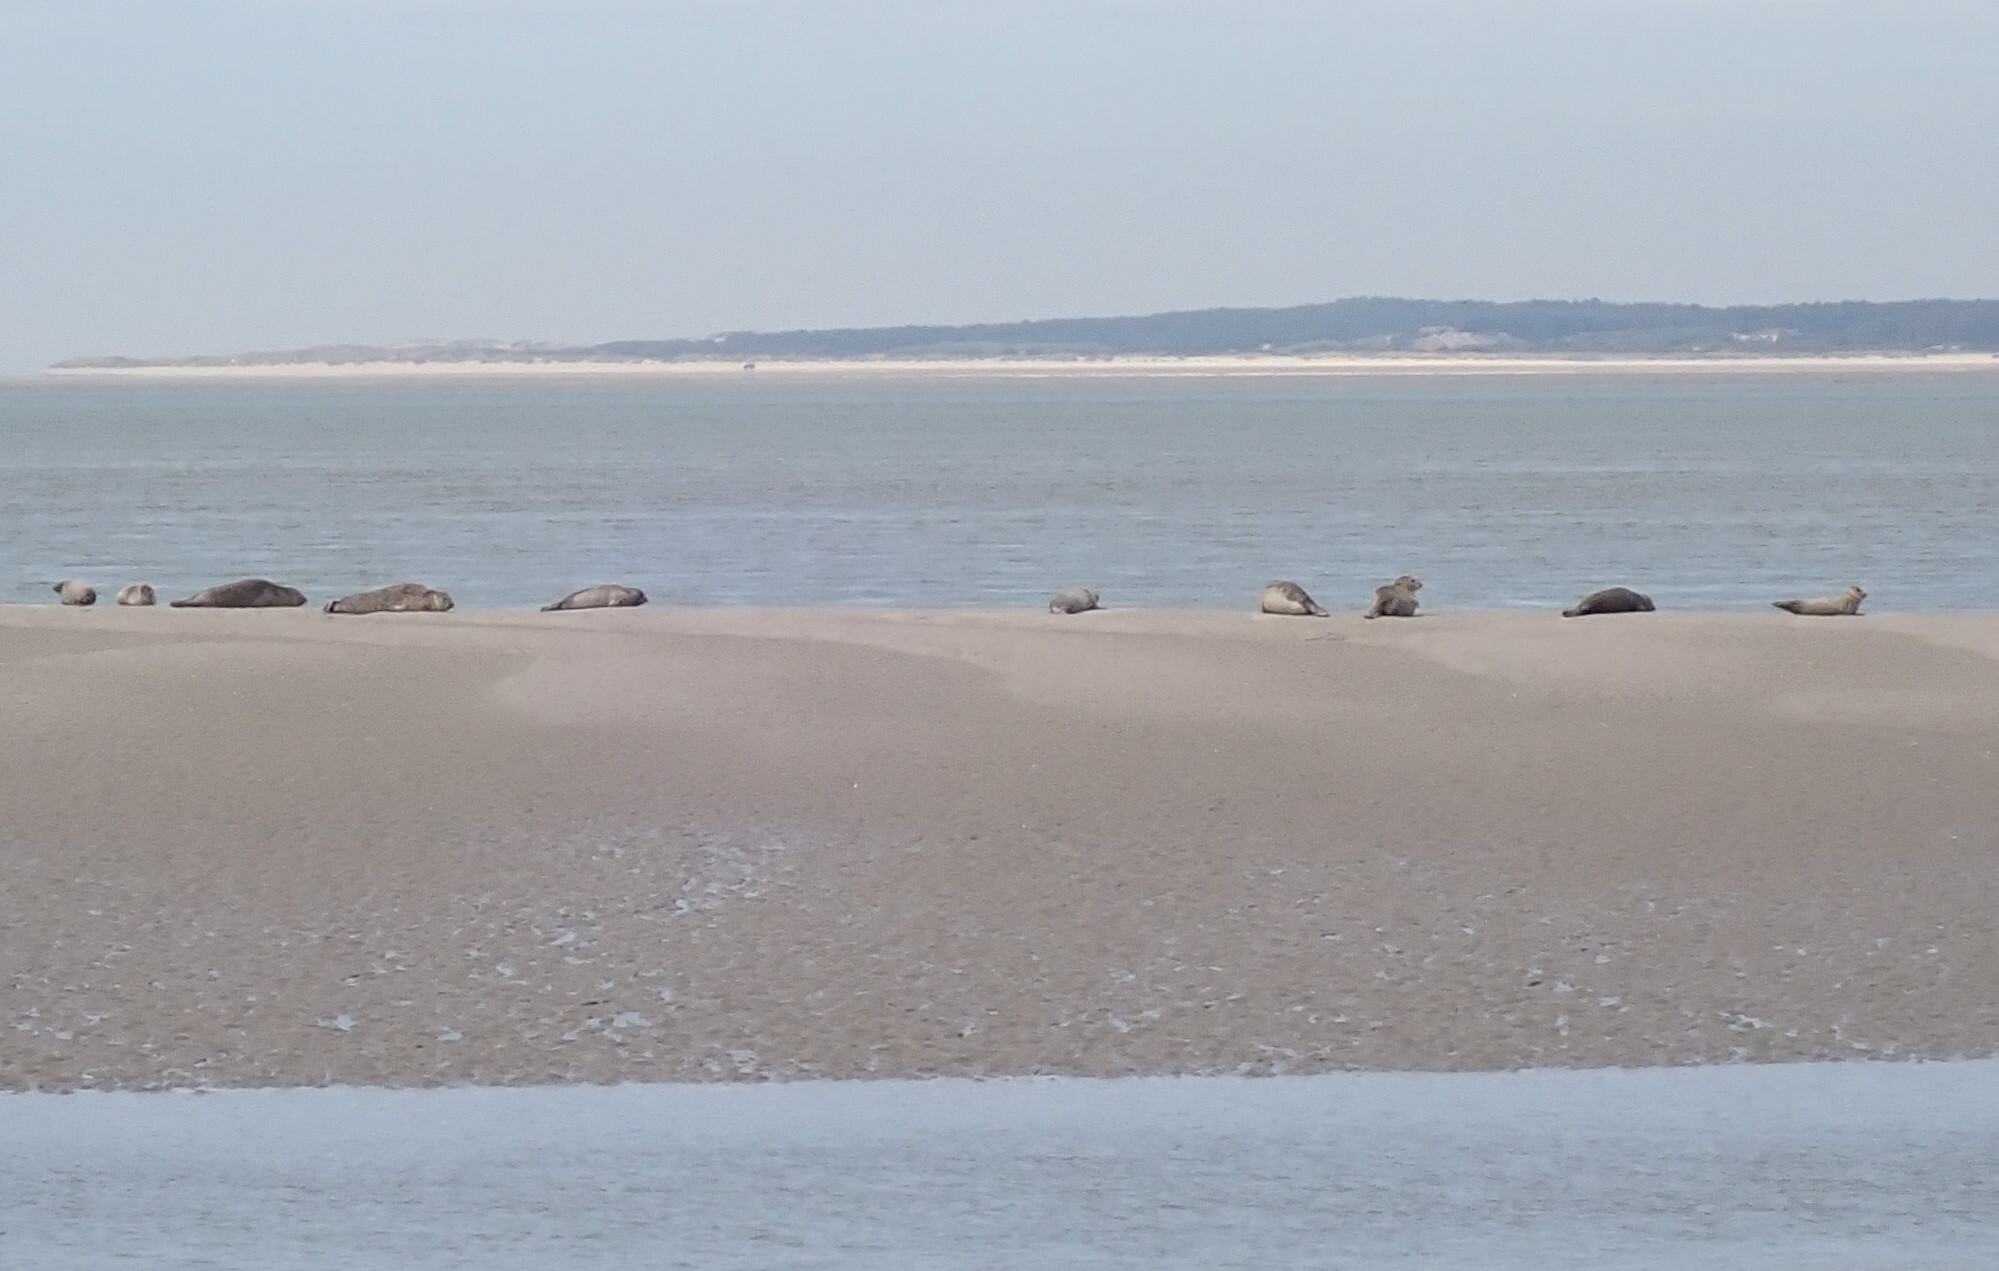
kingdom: Animalia
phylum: Chordata
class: Mammalia
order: Carnivora
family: Phocidae
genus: Phoca
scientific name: Phoca vitulina
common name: Harbor seal
